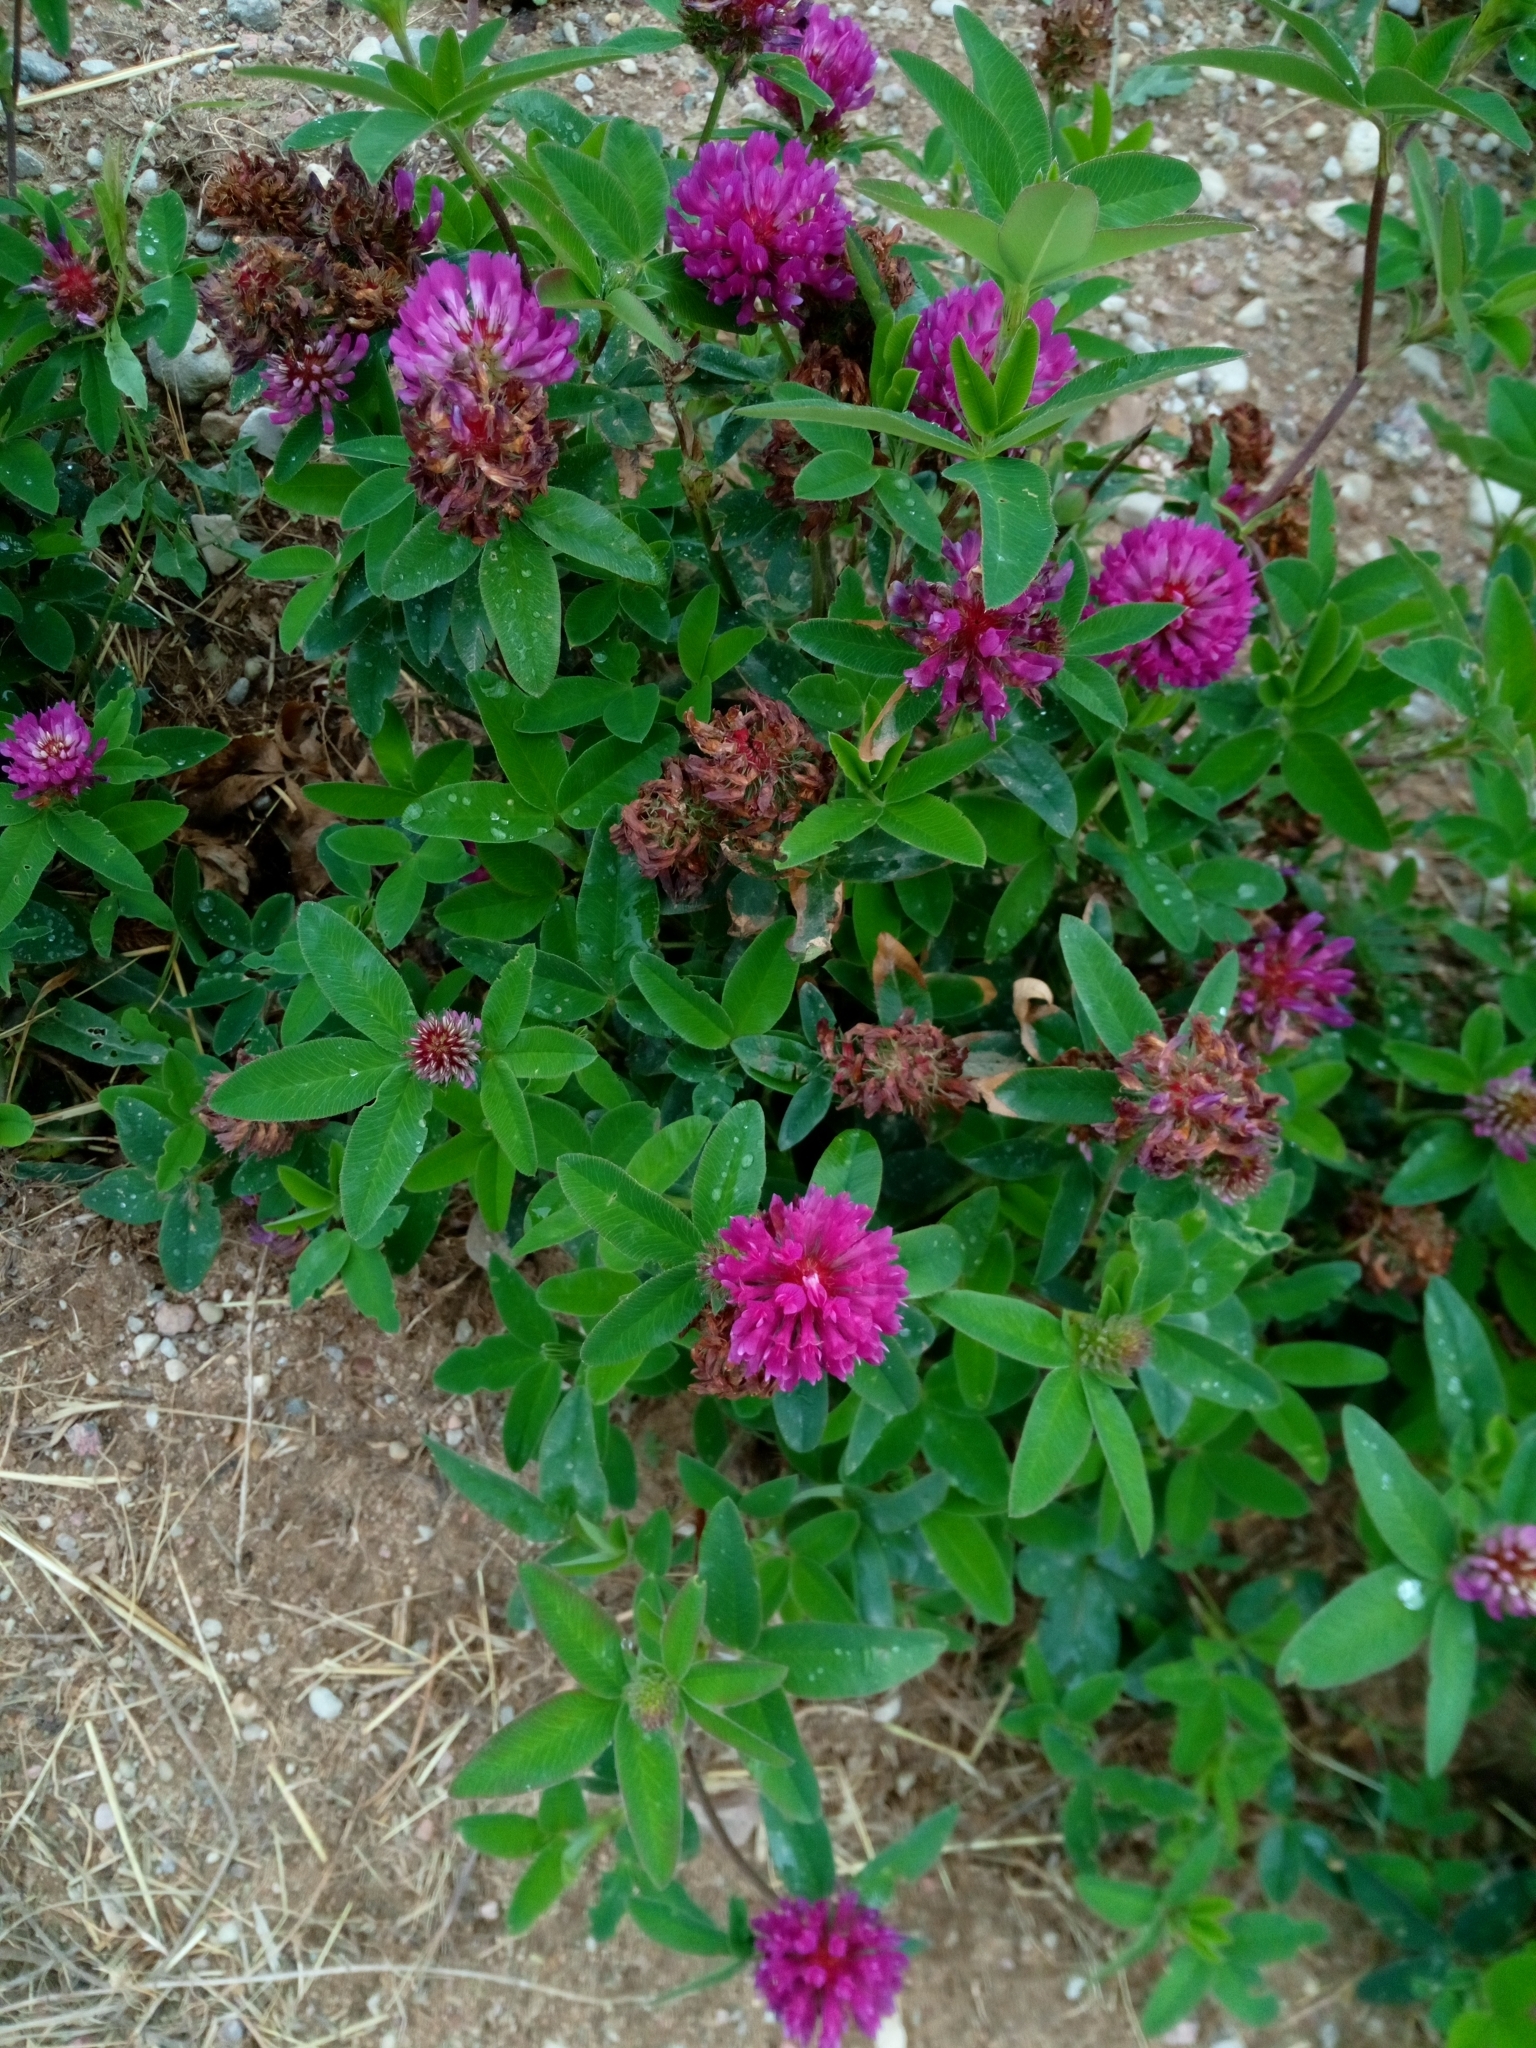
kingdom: Plantae
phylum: Tracheophyta
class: Magnoliopsida
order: Fabales
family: Fabaceae
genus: Trifolium
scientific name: Trifolium medium
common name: Zigzag clover
